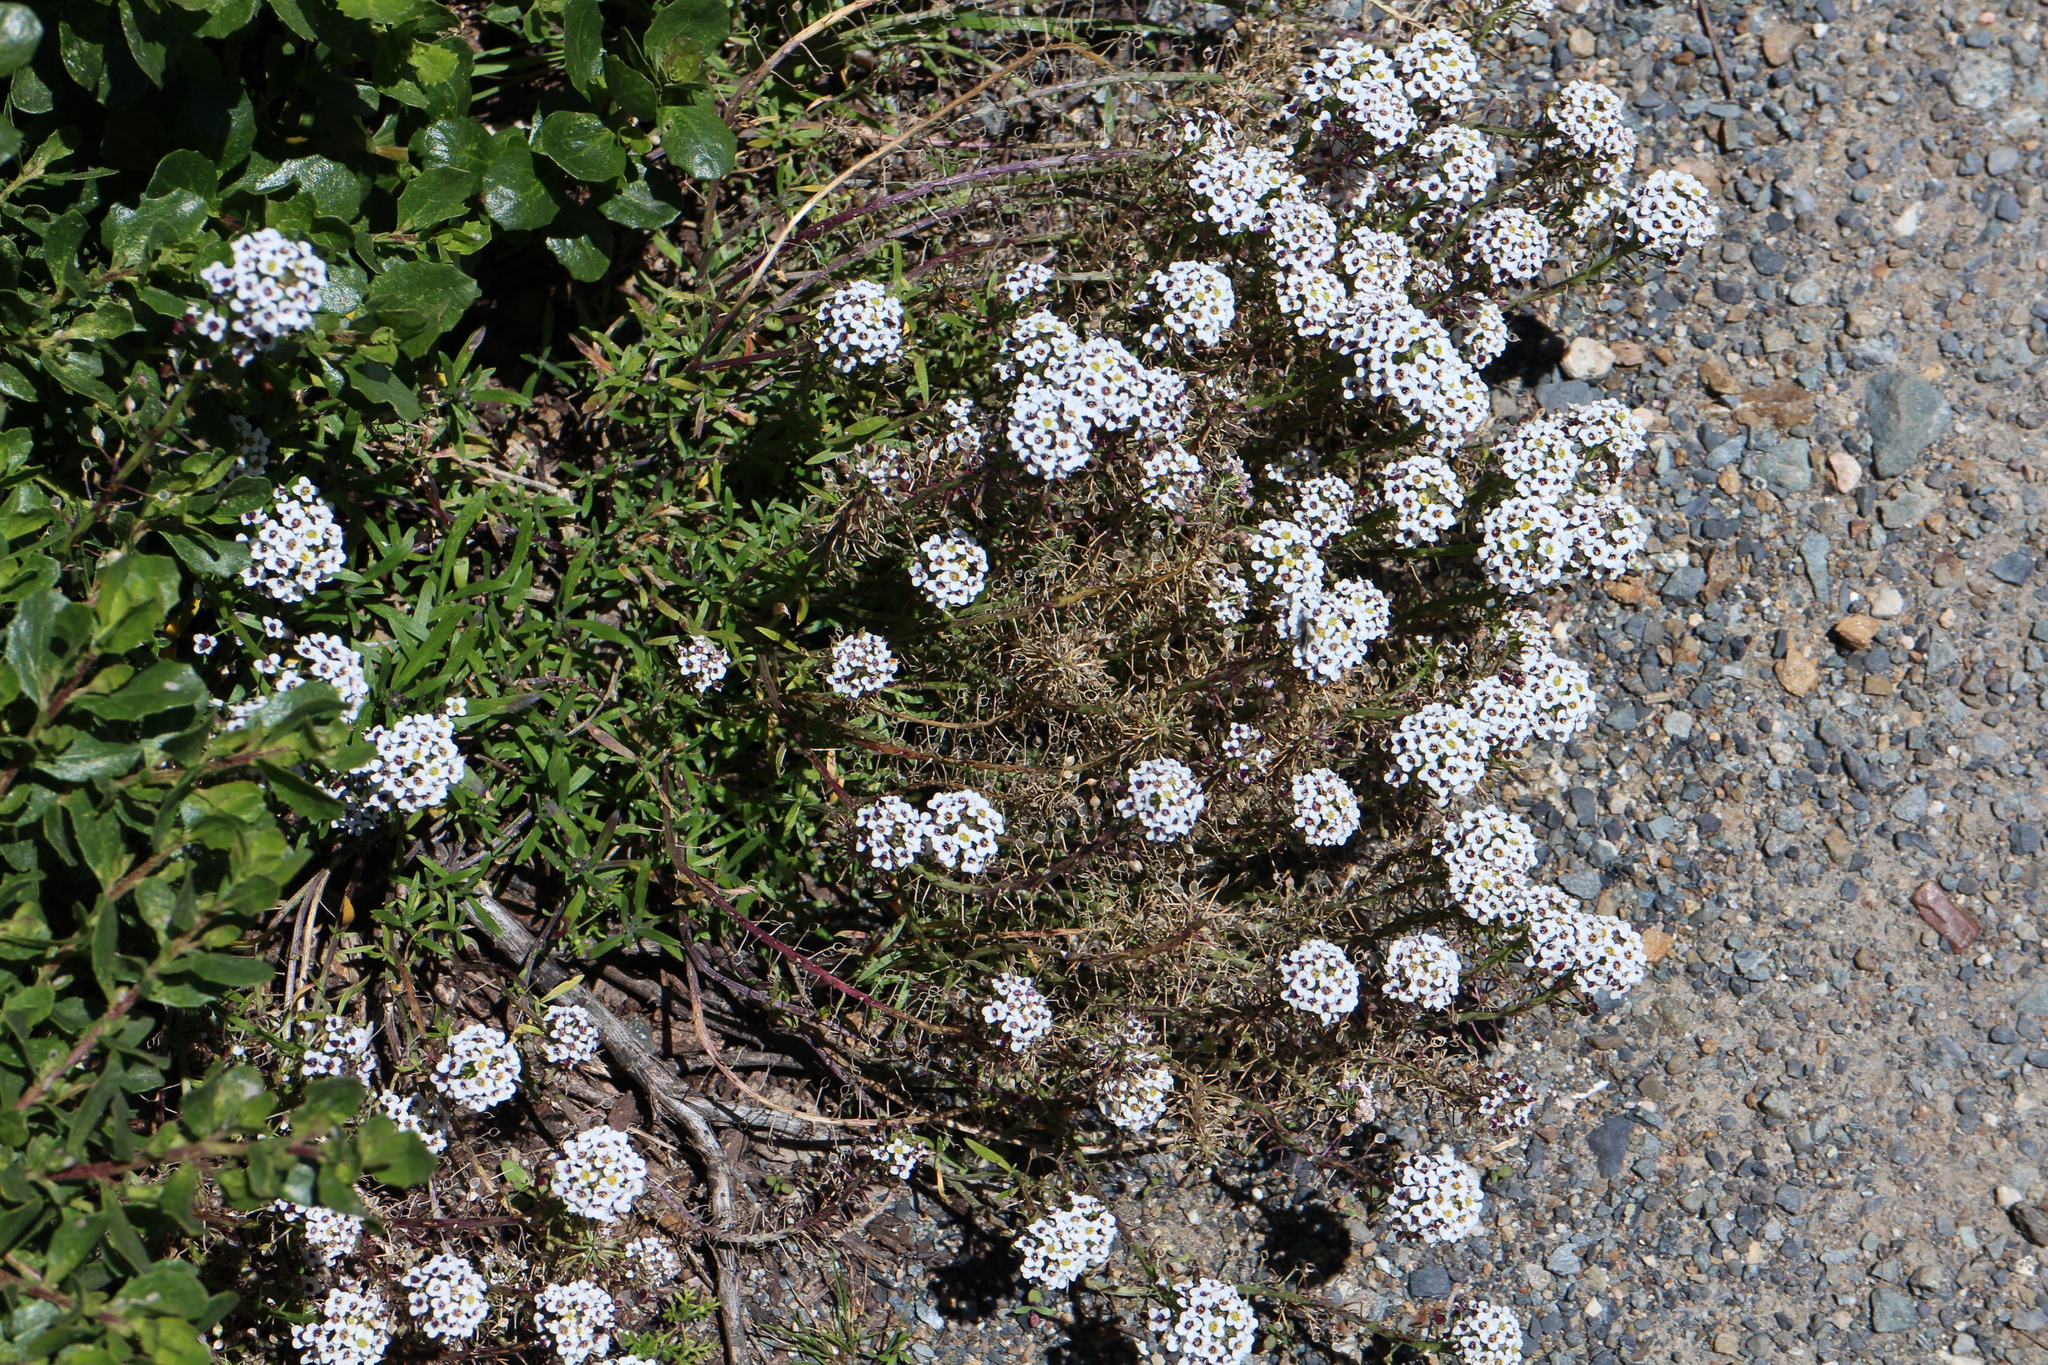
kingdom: Plantae
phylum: Tracheophyta
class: Magnoliopsida
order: Brassicales
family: Brassicaceae
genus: Lobularia
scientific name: Lobularia maritima
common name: Sweet alison
